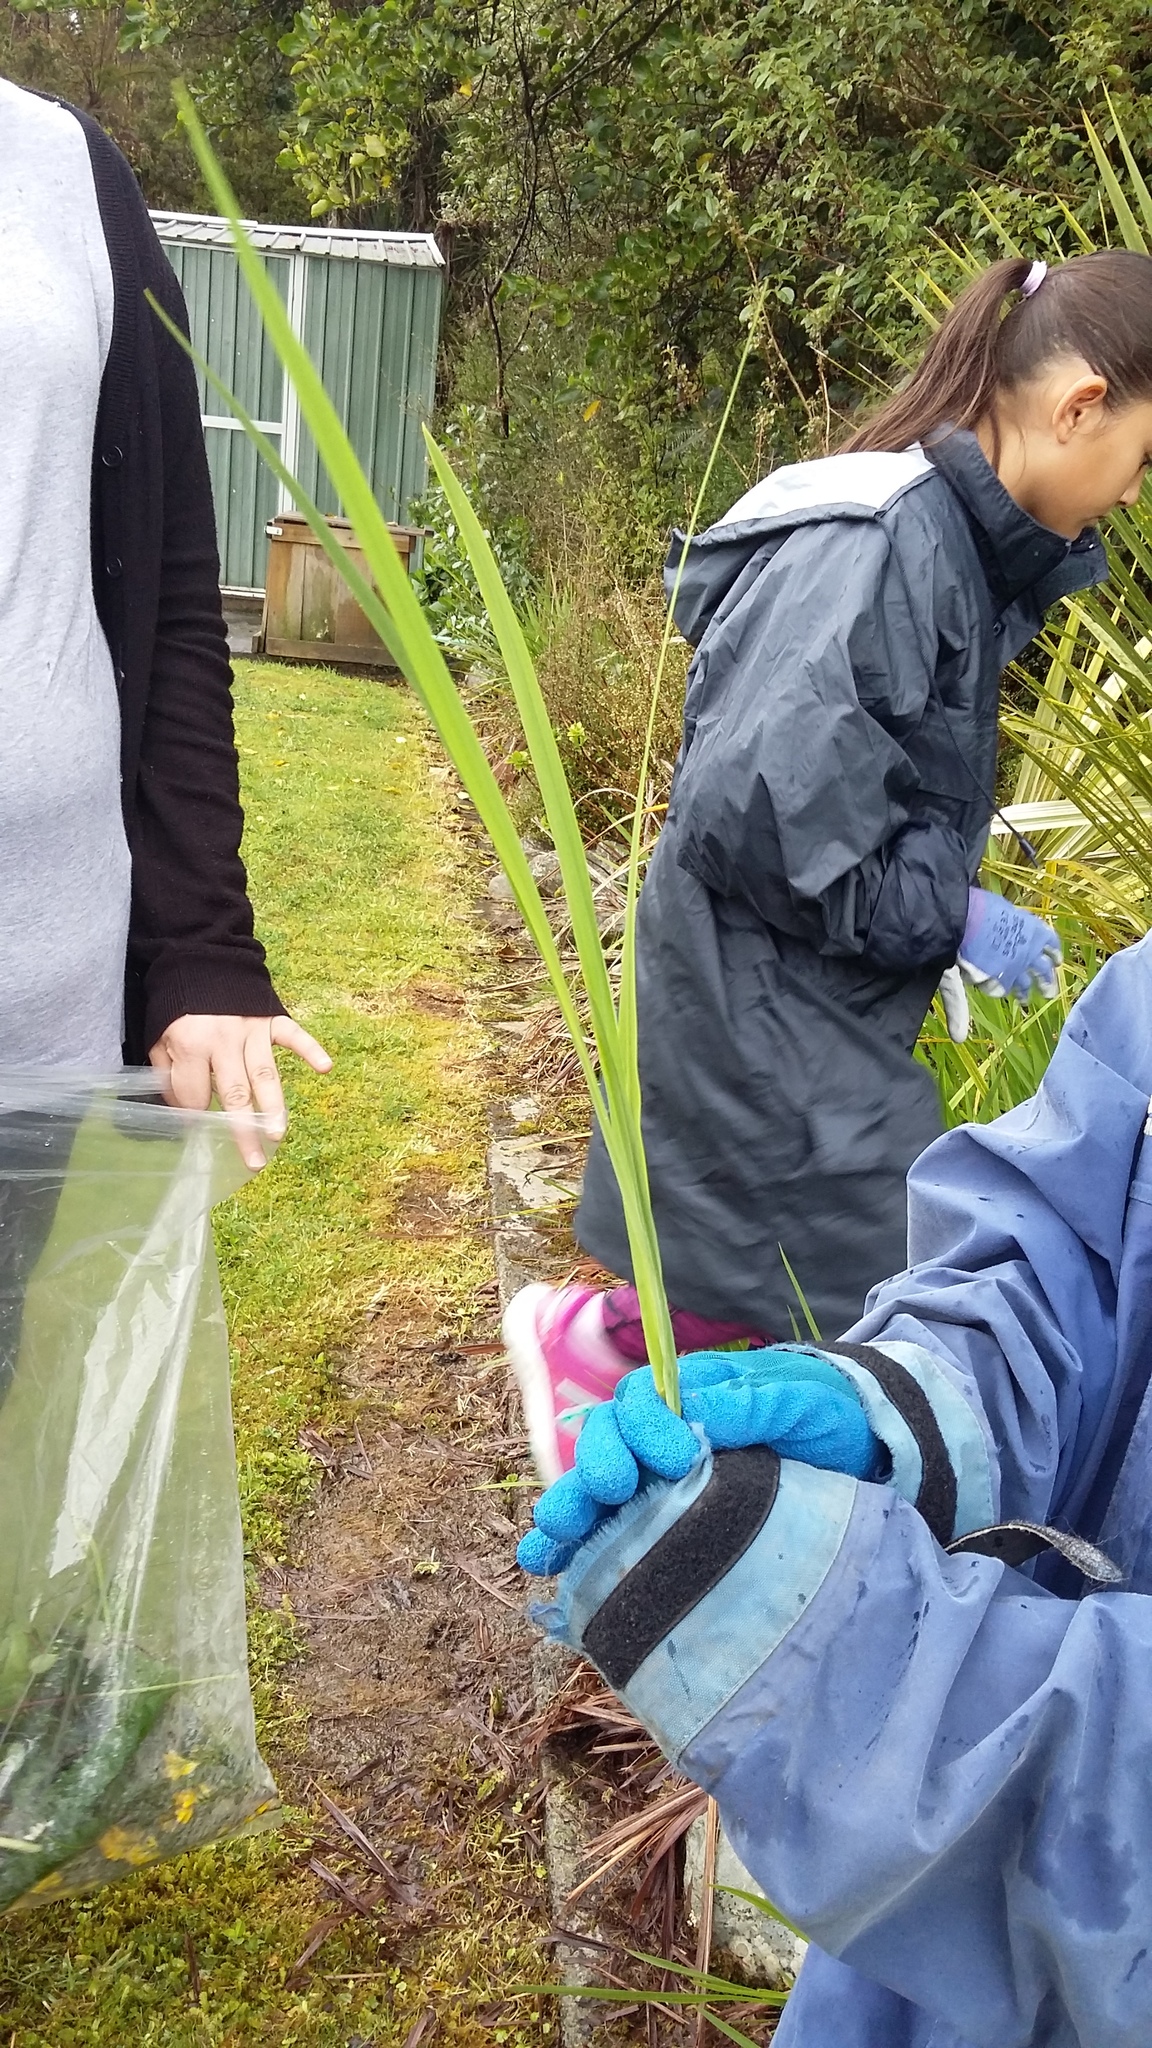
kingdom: Plantae
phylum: Tracheophyta
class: Liliopsida
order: Asparagales
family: Iridaceae
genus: Crocosmia
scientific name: Crocosmia crocosmiiflora
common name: Montbretia
